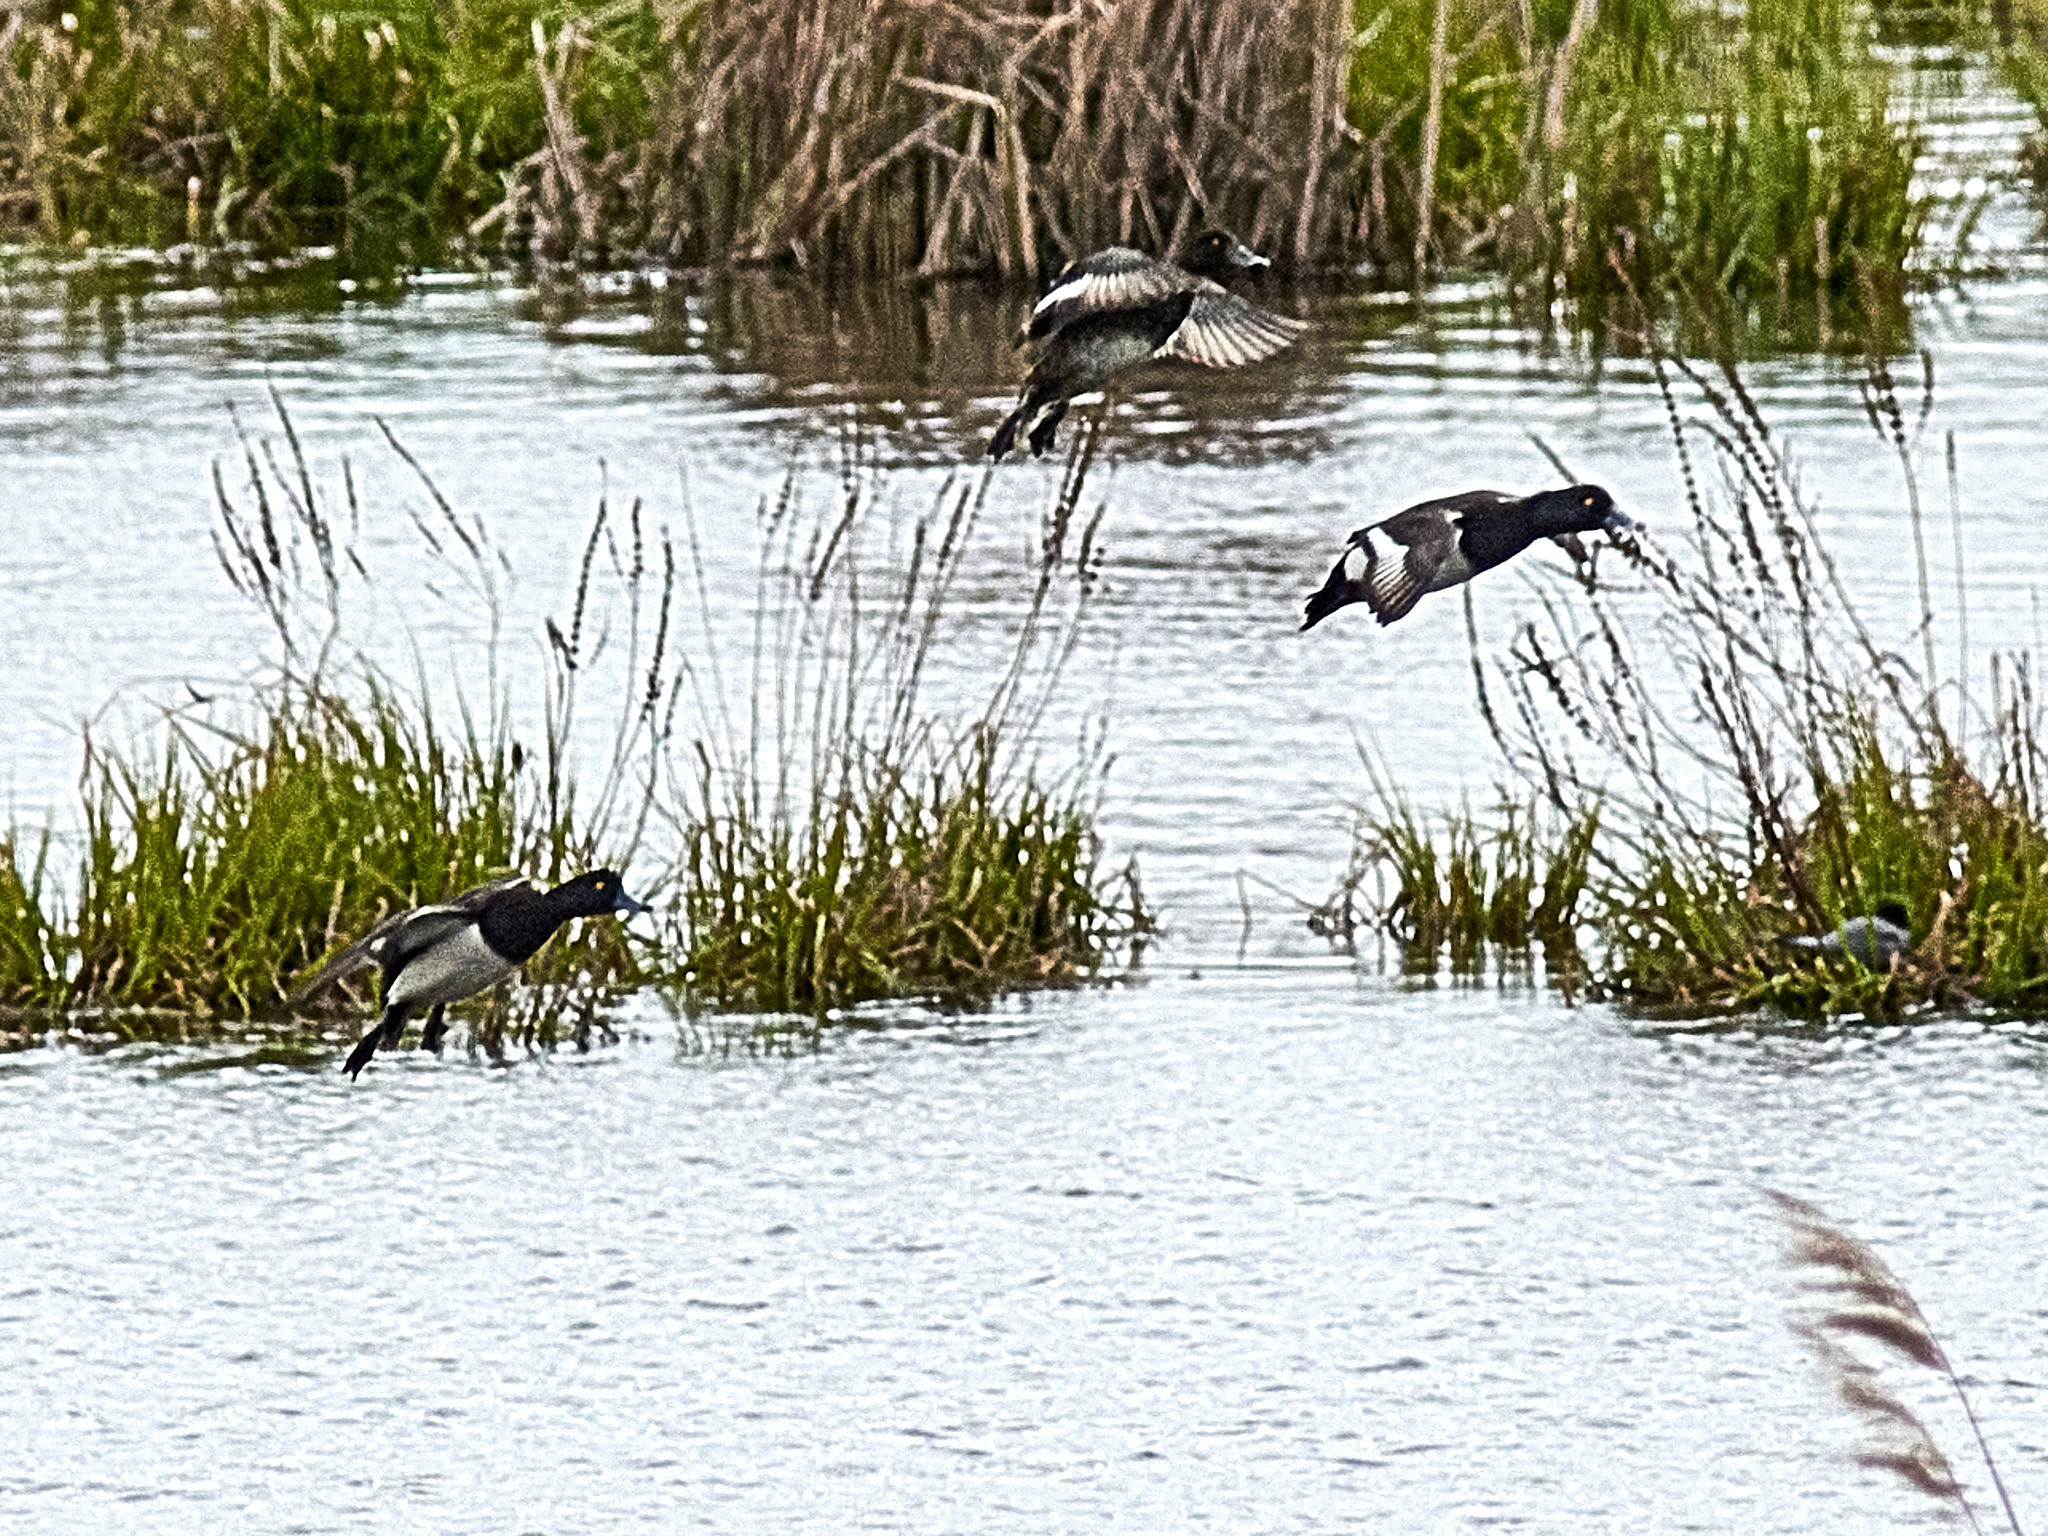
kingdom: Animalia
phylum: Chordata
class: Aves
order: Anseriformes
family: Anatidae
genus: Aythya
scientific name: Aythya fuligula
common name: Tufted duck
